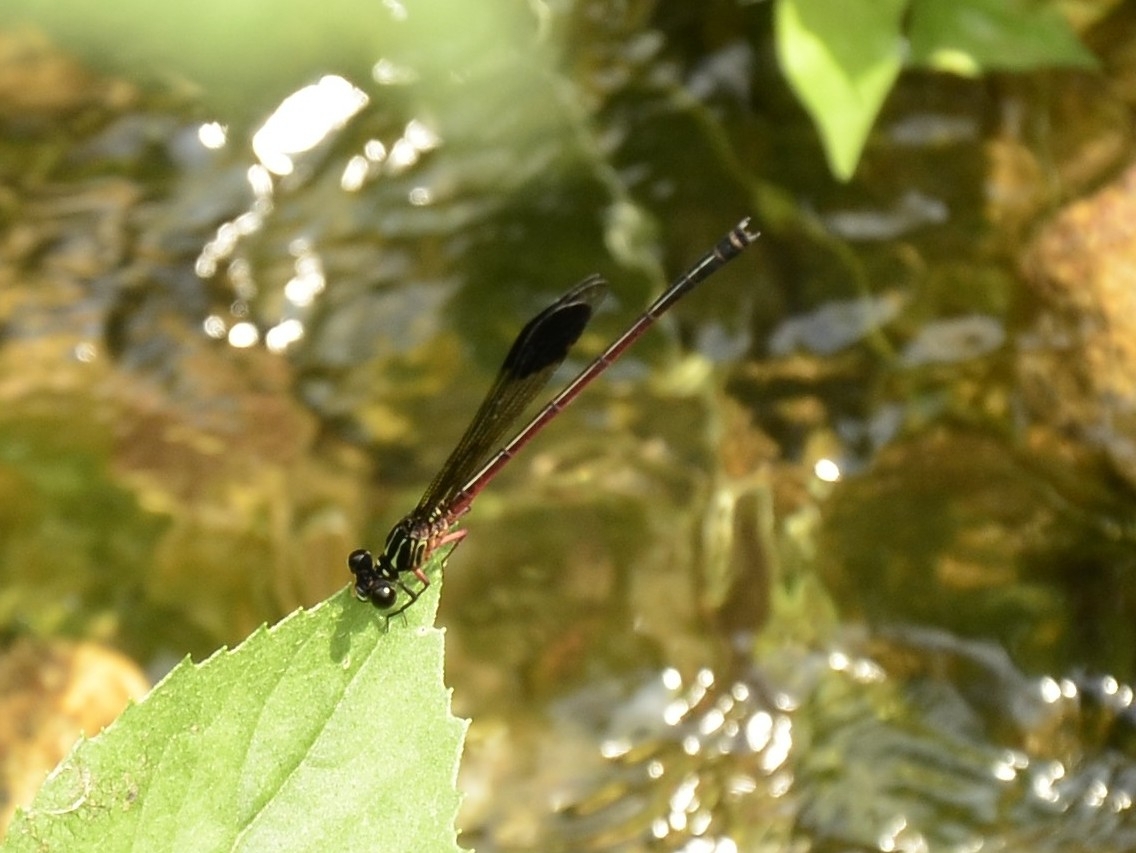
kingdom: Animalia
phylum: Arthropoda
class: Insecta
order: Odonata
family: Euphaeidae
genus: Euphaea
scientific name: Euphaea fraseri
